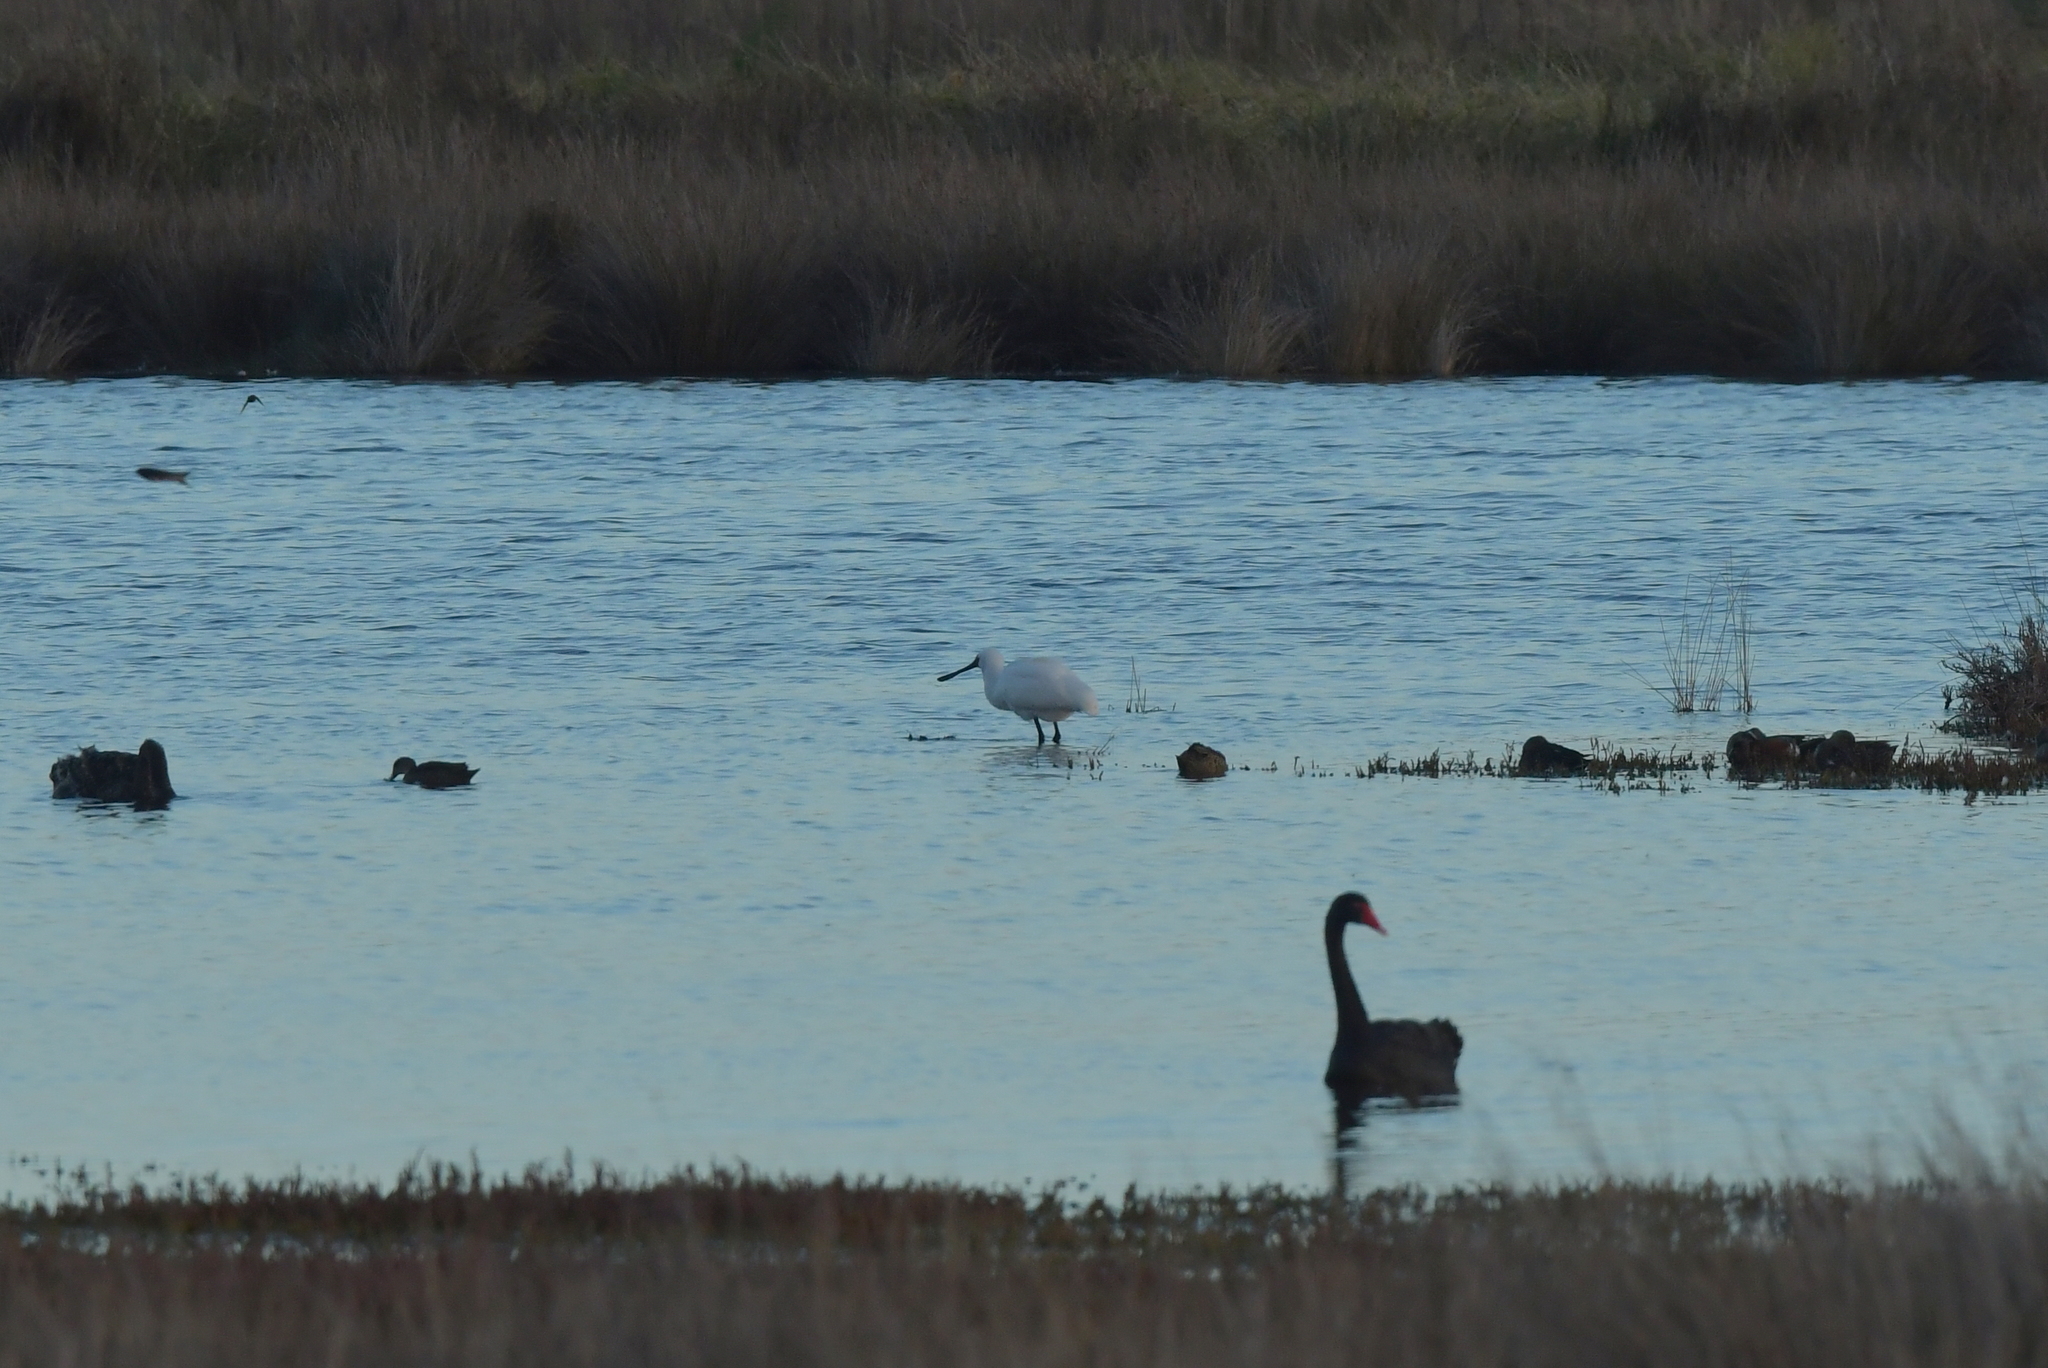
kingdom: Animalia
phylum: Chordata
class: Aves
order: Pelecaniformes
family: Threskiornithidae
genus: Platalea
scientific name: Platalea regia
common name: Royal spoonbill
